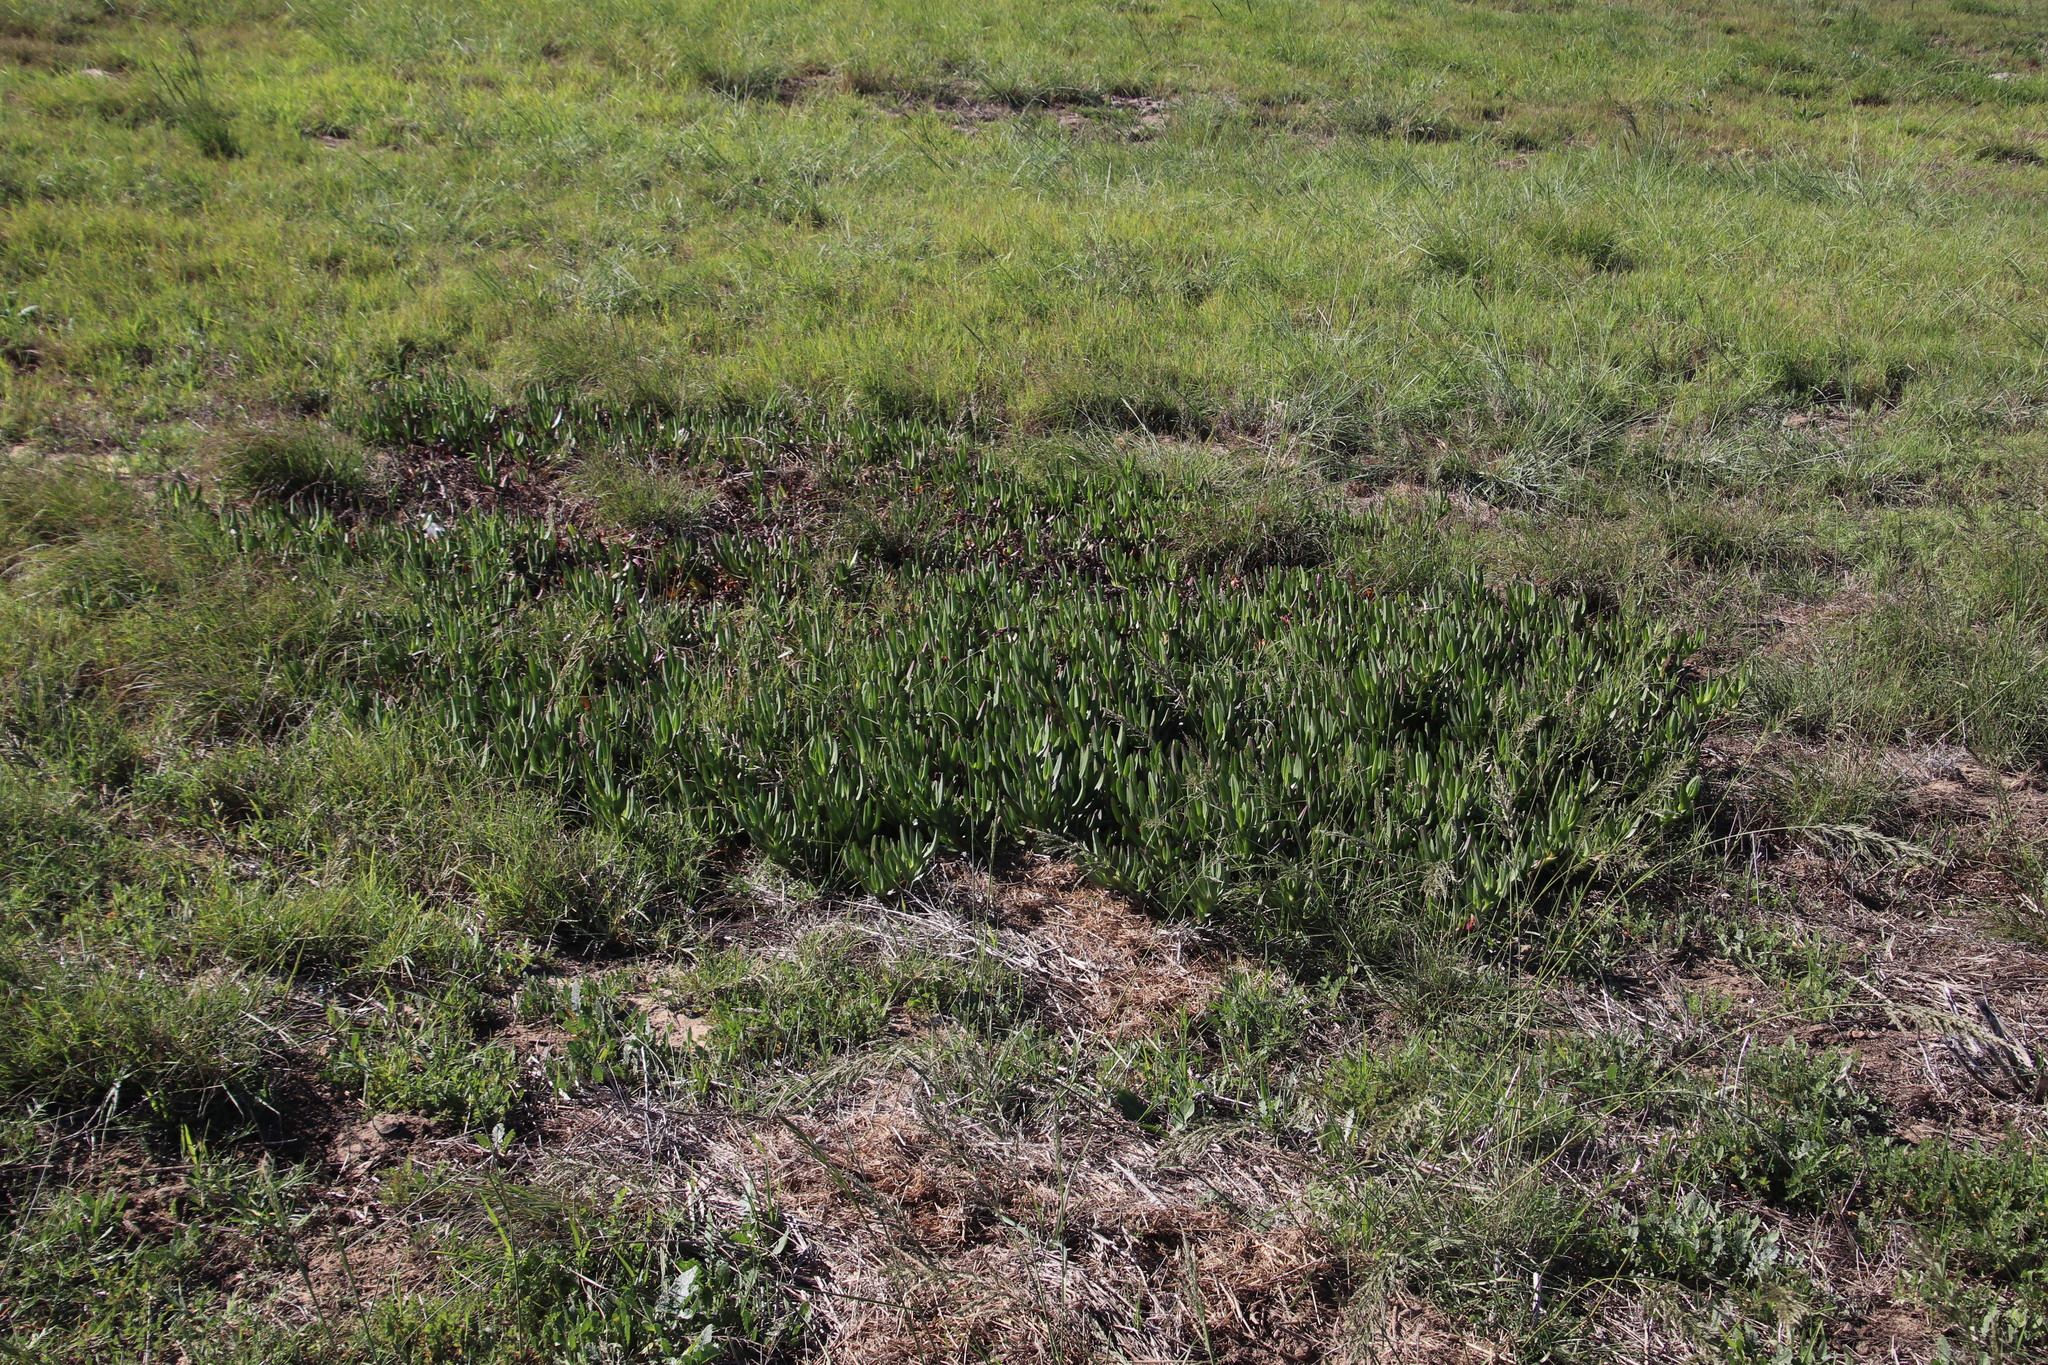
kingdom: Plantae
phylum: Tracheophyta
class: Magnoliopsida
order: Caryophyllales
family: Aizoaceae
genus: Carpobrotus
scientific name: Carpobrotus edulis
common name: Hottentot-fig
